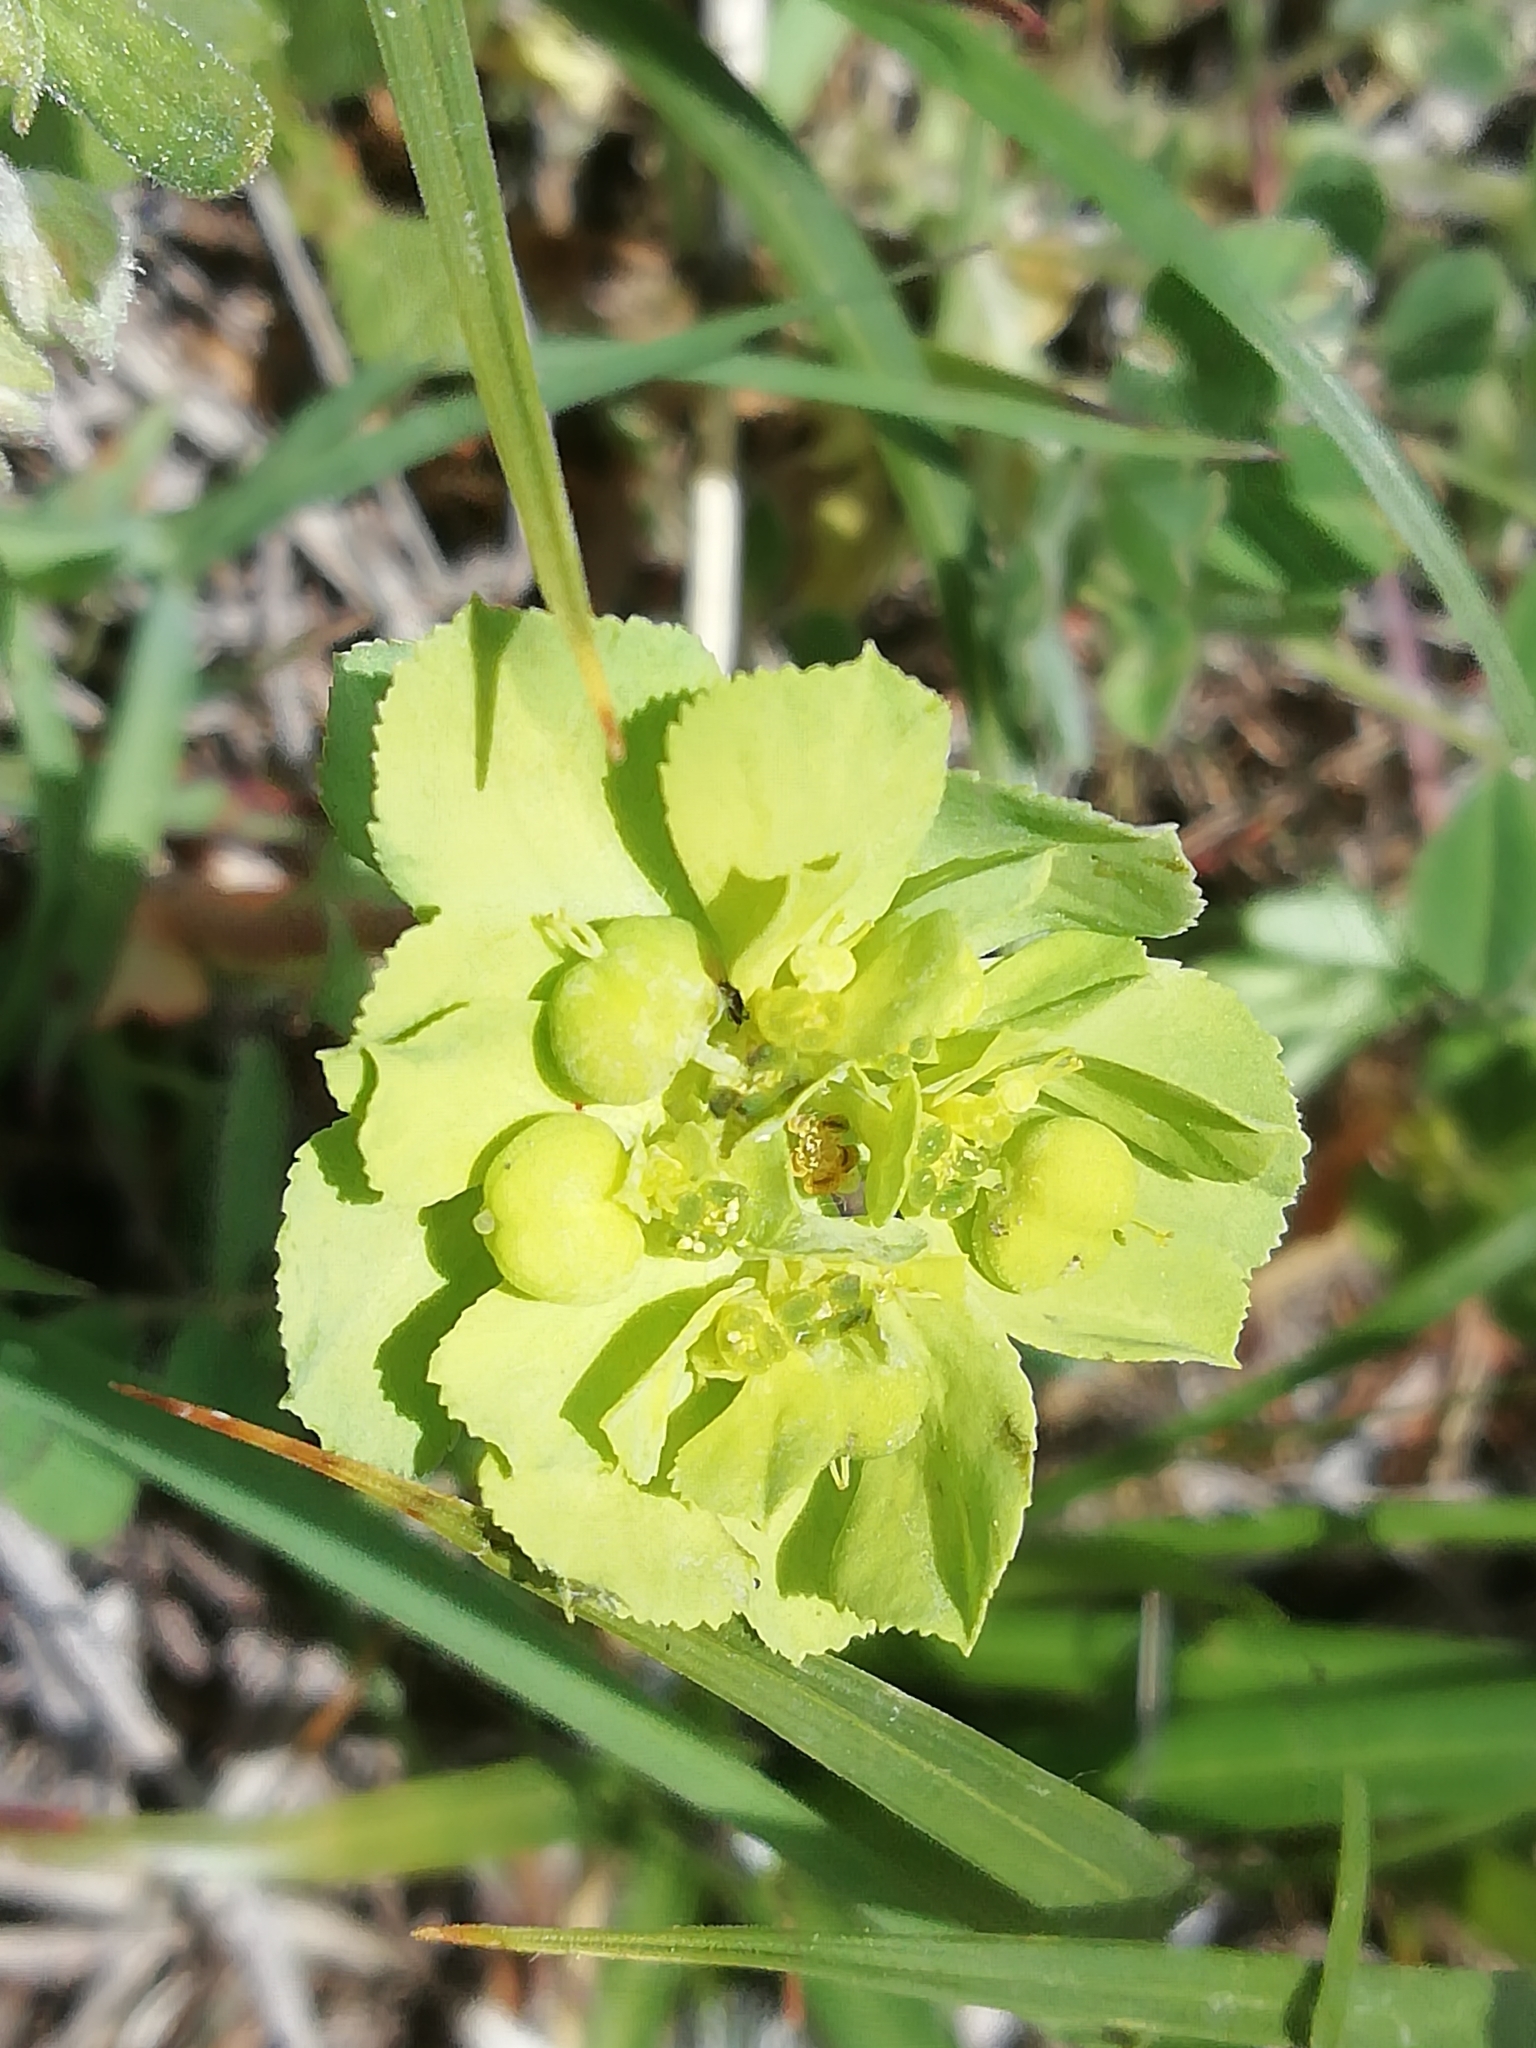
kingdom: Plantae
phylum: Tracheophyta
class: Magnoliopsida
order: Malpighiales
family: Euphorbiaceae
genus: Euphorbia
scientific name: Euphorbia helioscopia
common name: Sun spurge
